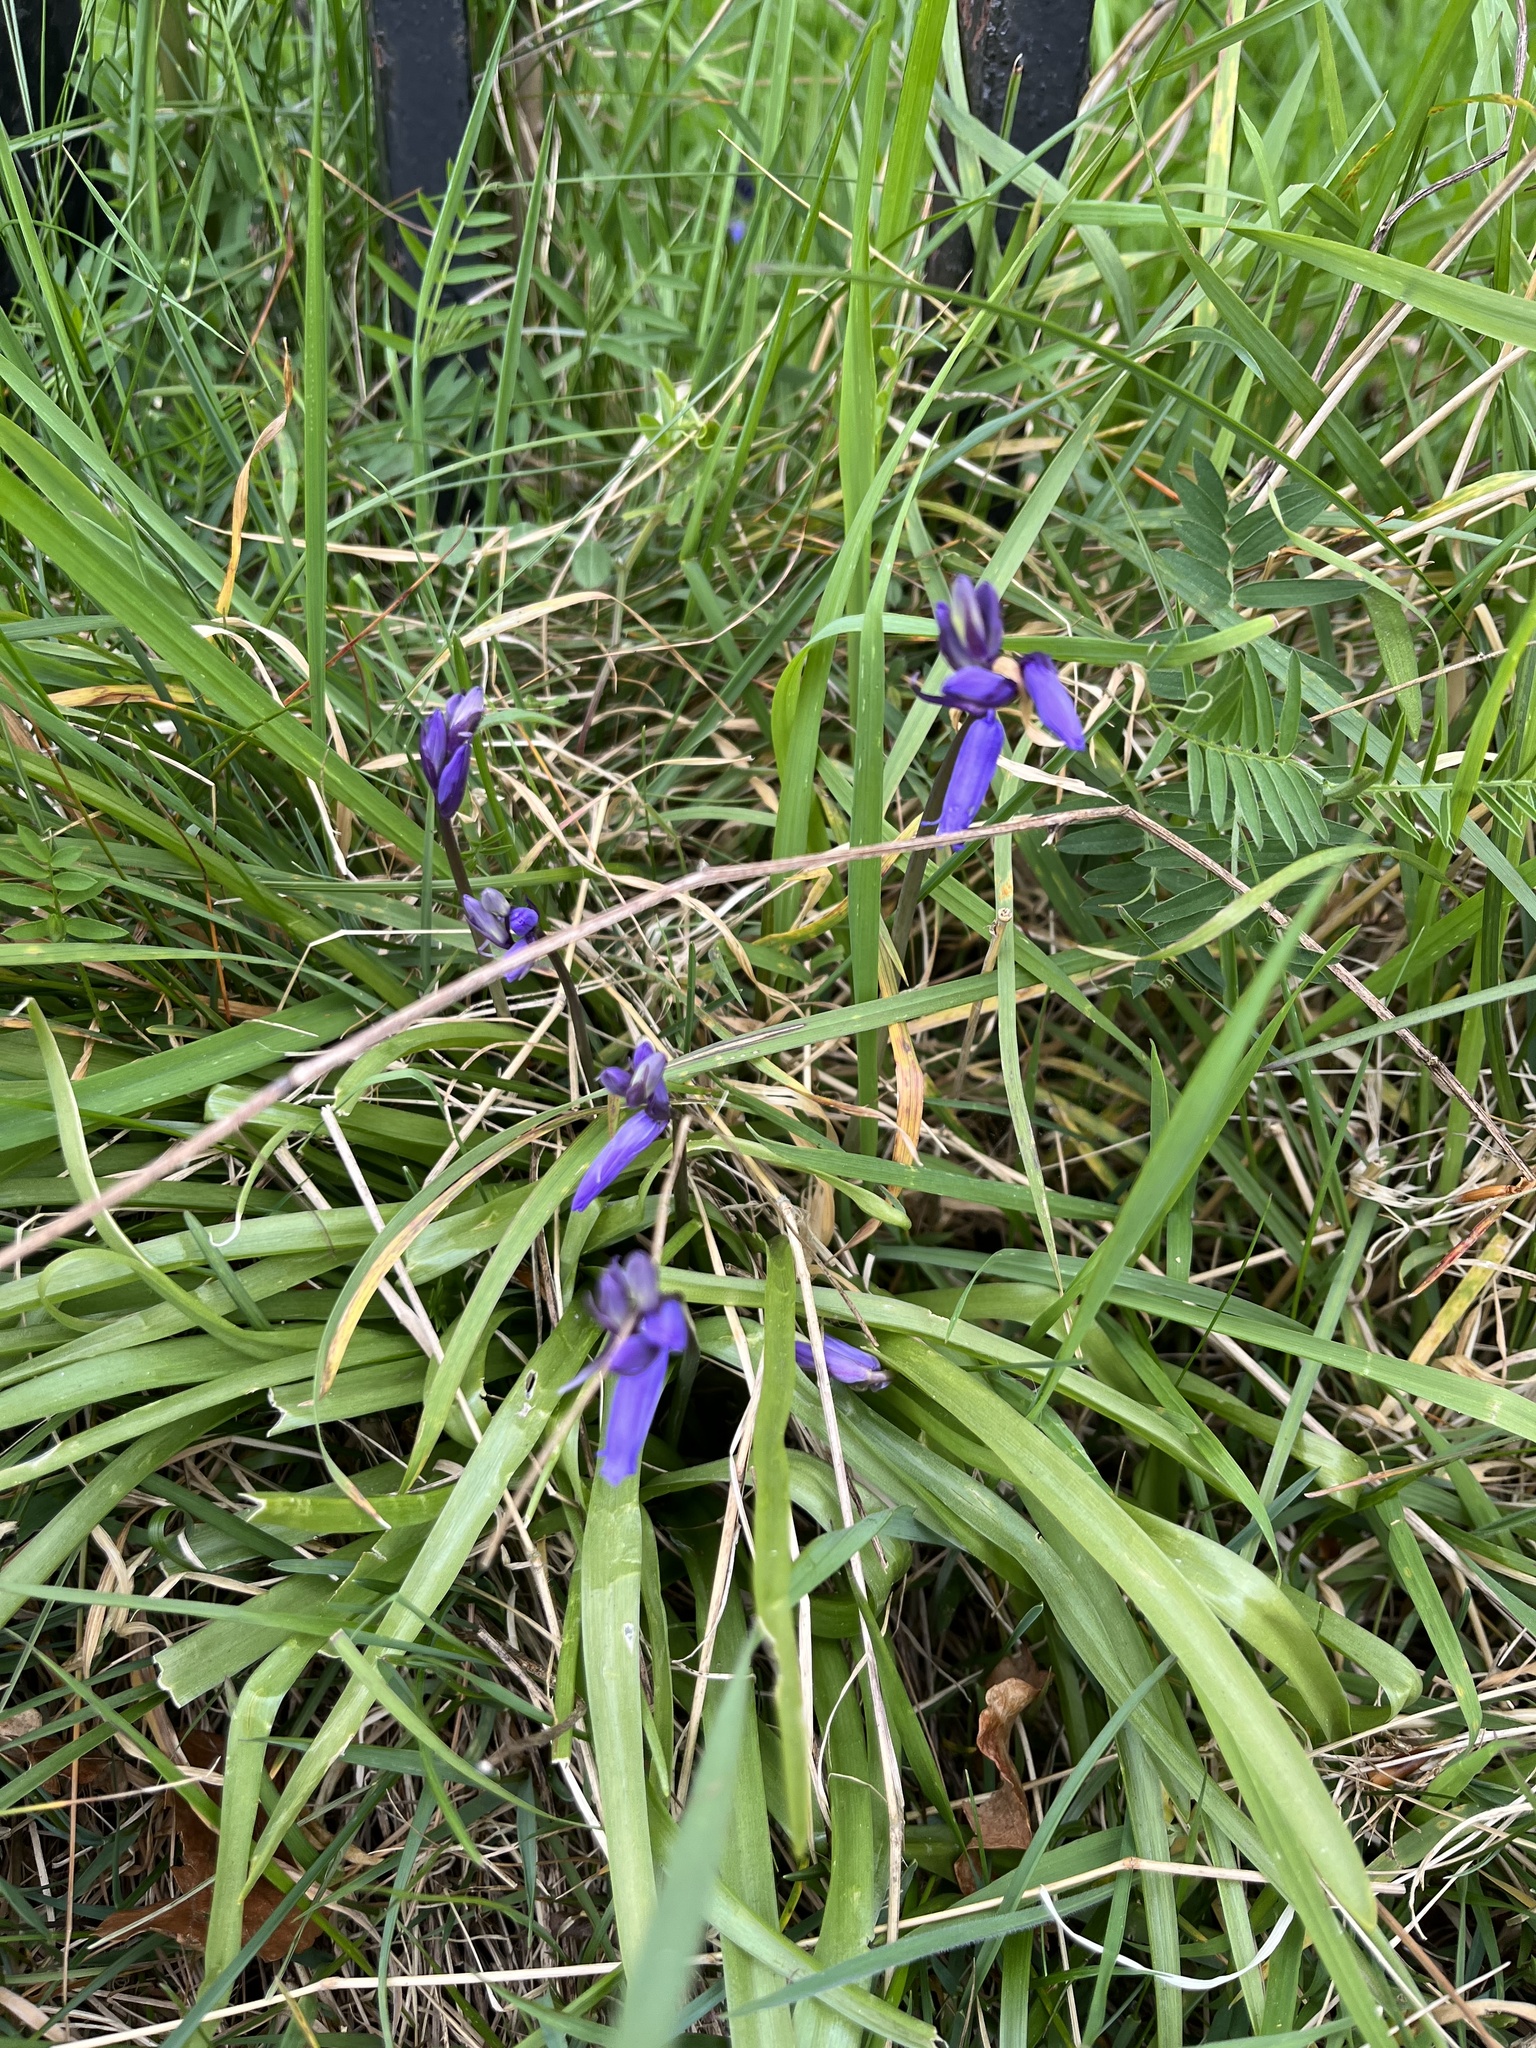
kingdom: Plantae
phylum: Tracheophyta
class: Liliopsida
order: Asparagales
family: Asparagaceae
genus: Hyacinthoides
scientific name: Hyacinthoides non-scripta
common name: Bluebell
